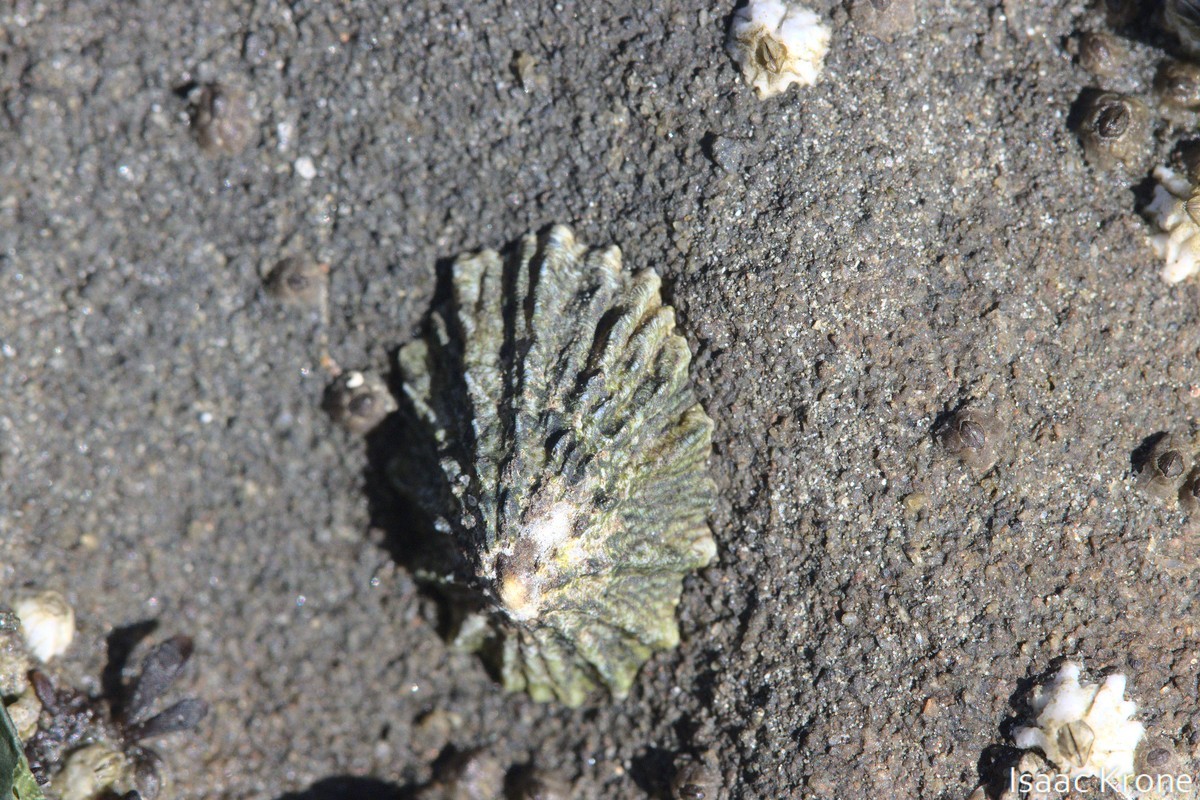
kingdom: Animalia
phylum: Mollusca
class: Gastropoda
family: Lottiidae
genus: Lottia
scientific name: Lottia scabra
